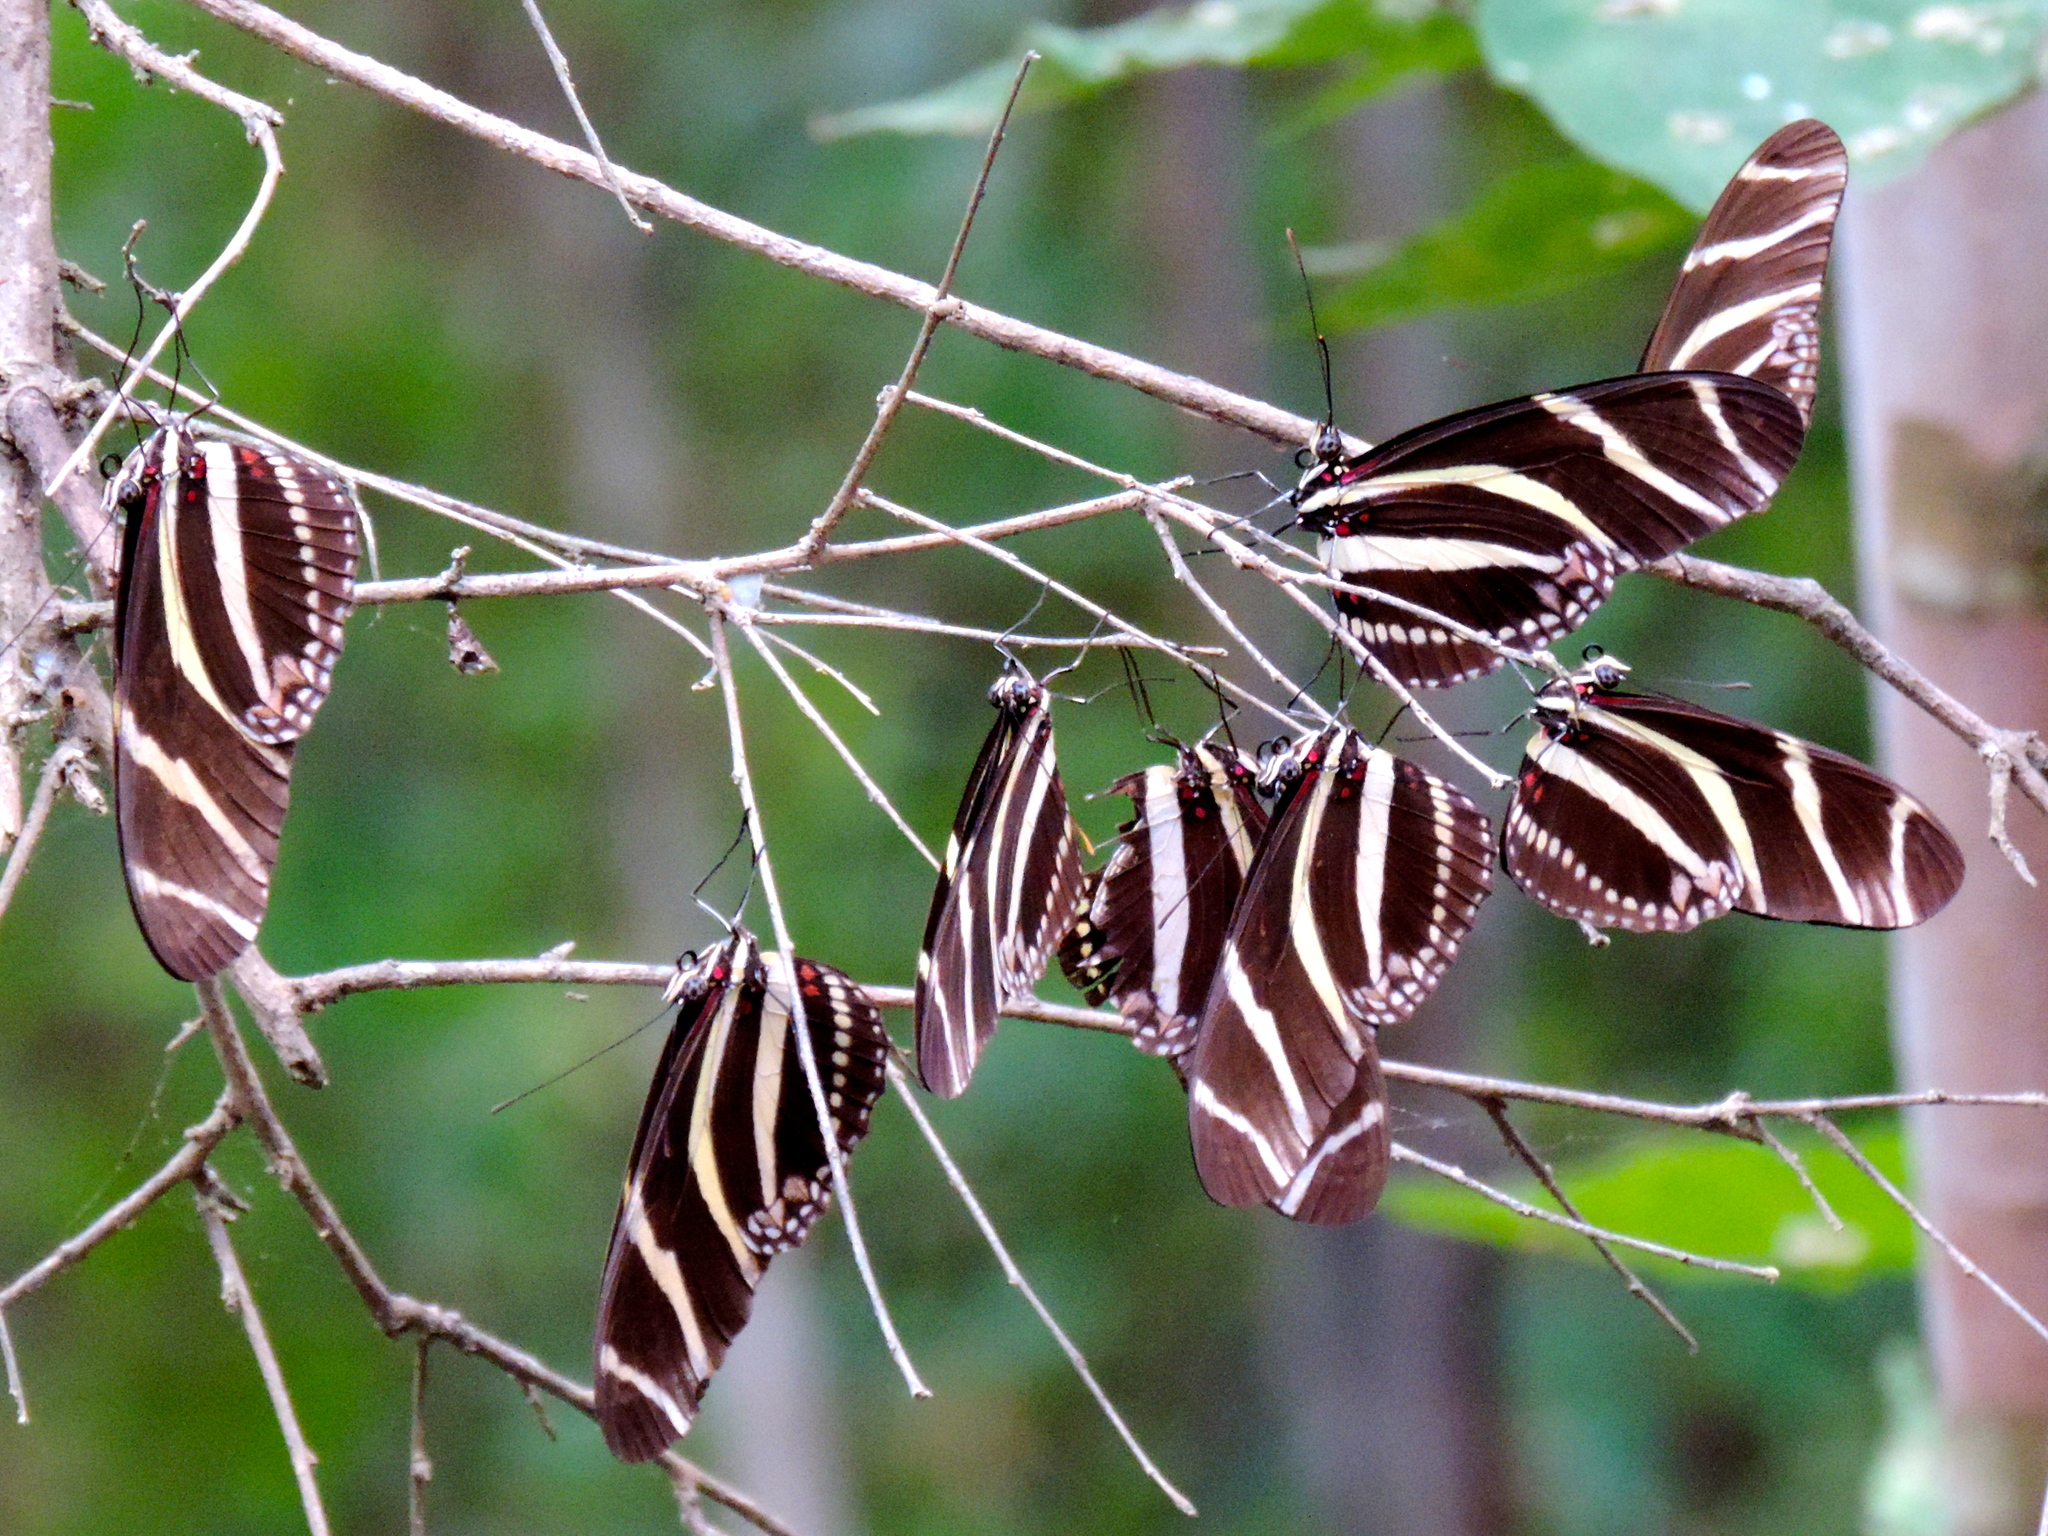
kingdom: Animalia
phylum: Arthropoda
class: Insecta
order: Lepidoptera
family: Nymphalidae
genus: Heliconius
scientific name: Heliconius charithonia
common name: Zebra long wing
